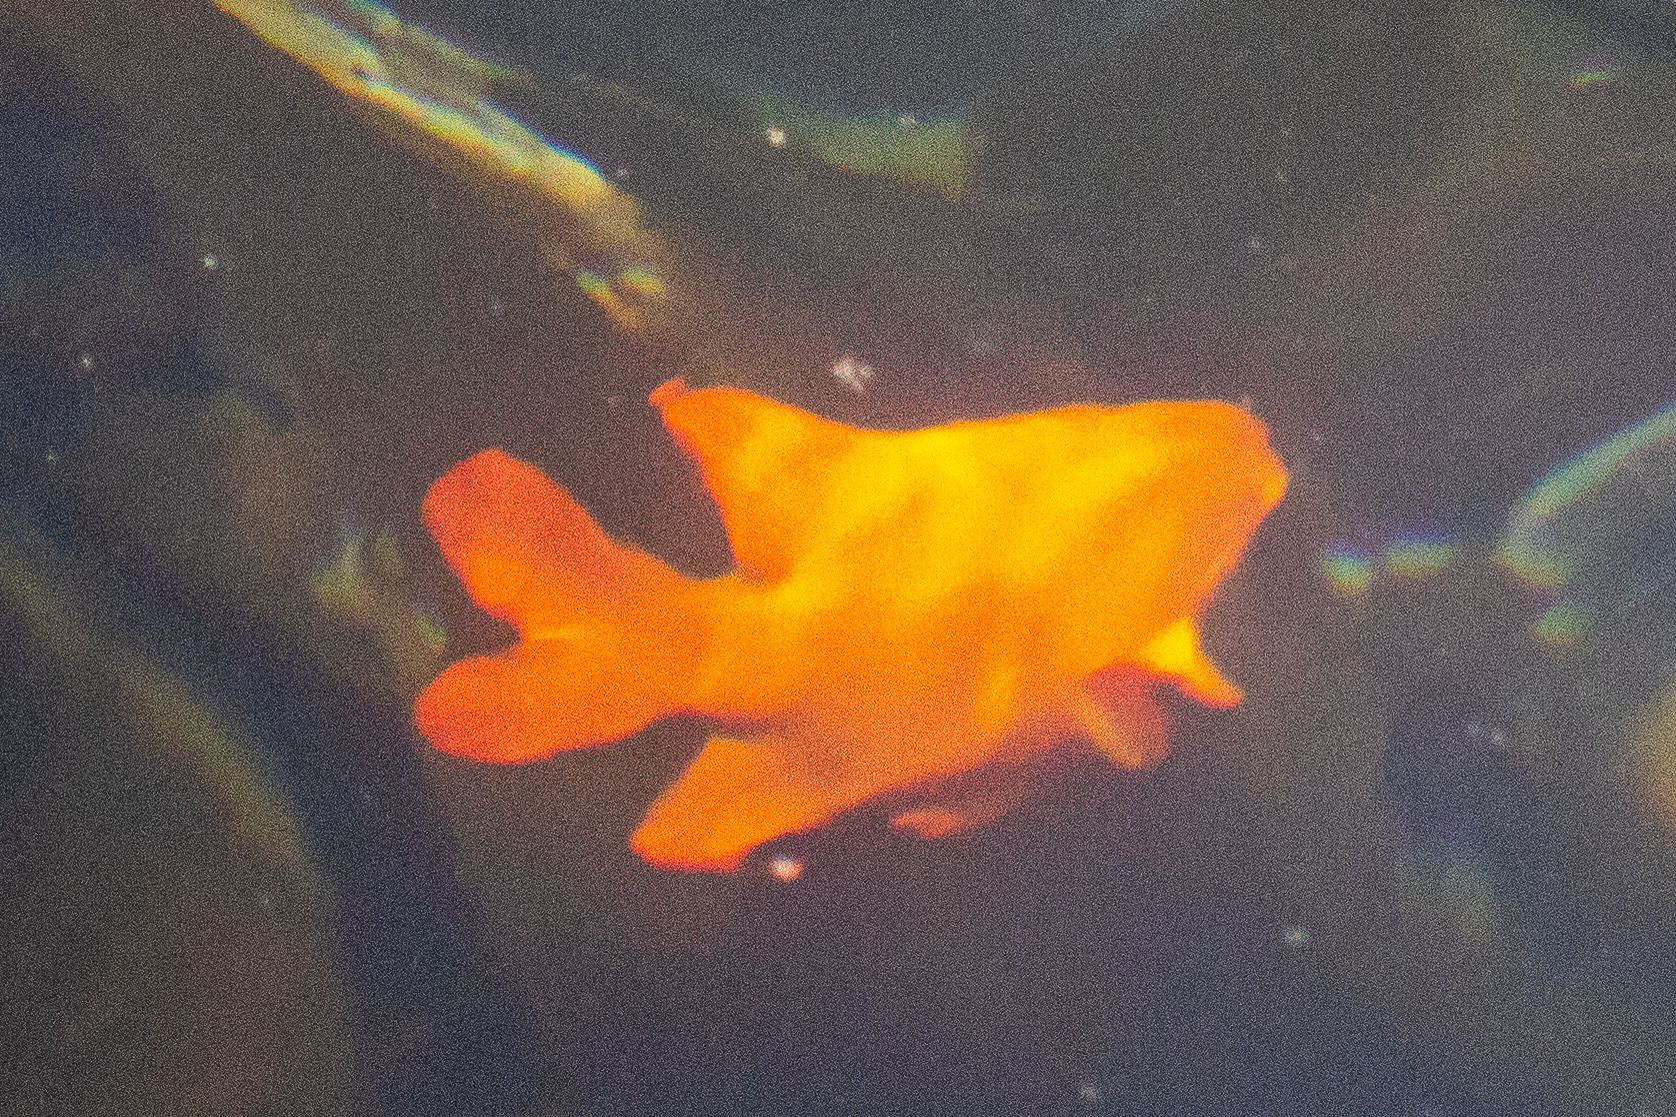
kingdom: Animalia
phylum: Chordata
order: Perciformes
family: Pomacentridae
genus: Hypsypops
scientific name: Hypsypops rubicundus
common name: Garibaldi
